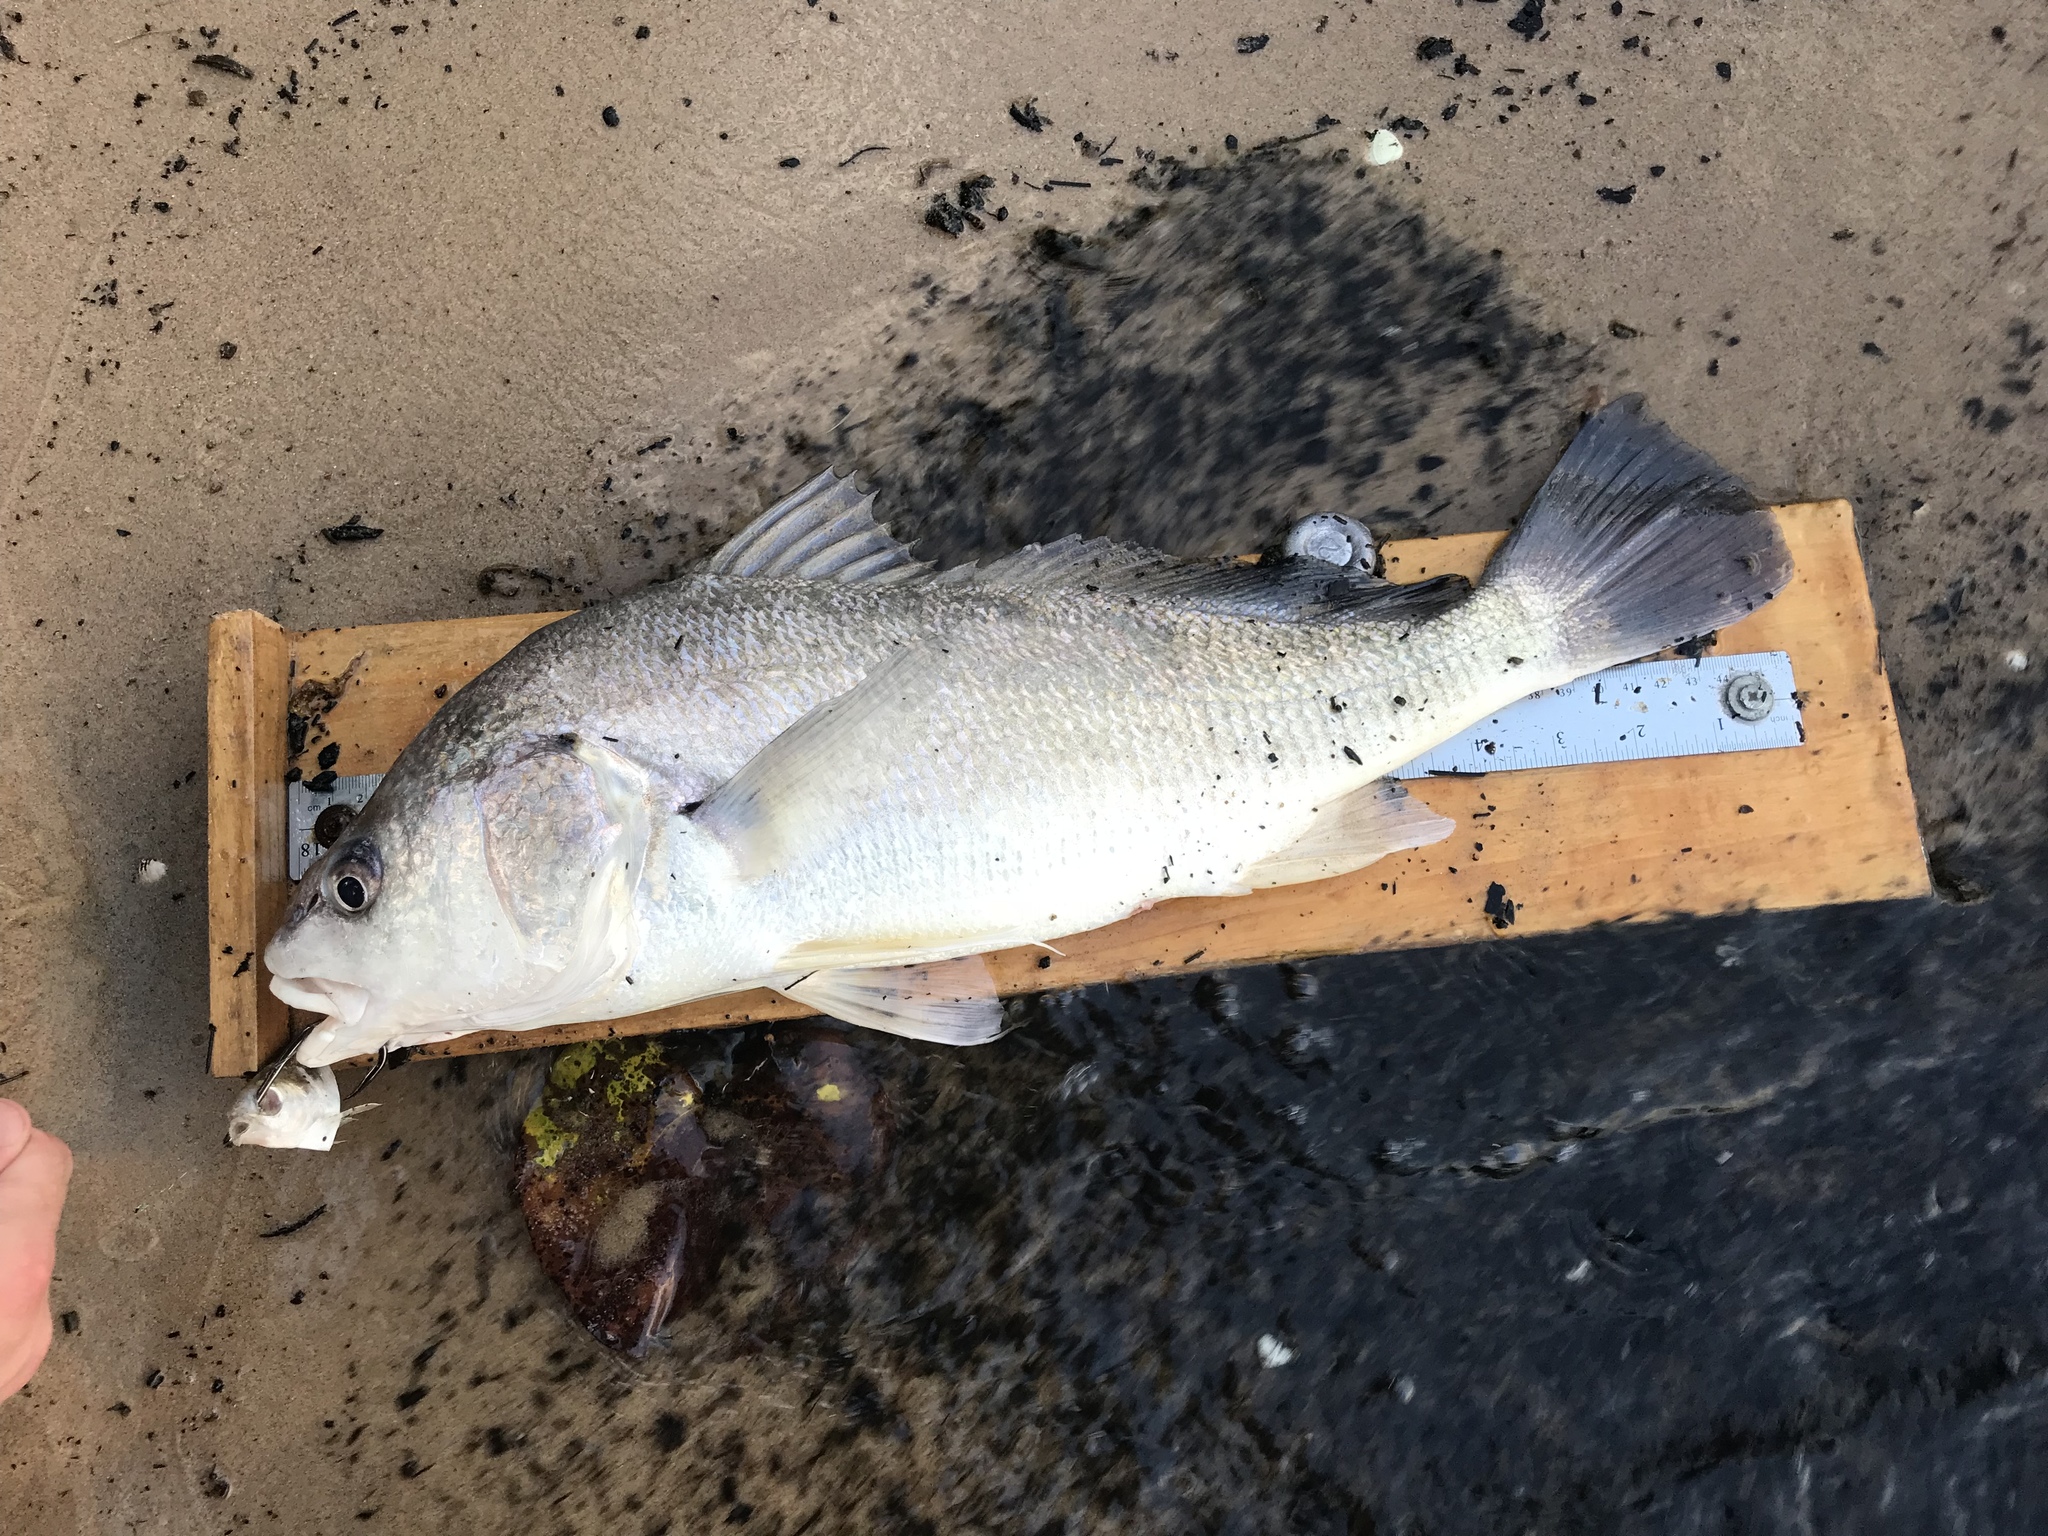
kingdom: Animalia
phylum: Chordata
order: Perciformes
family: Sciaenidae
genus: Aplodinotus
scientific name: Aplodinotus grunniens
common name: Freshwater drum
